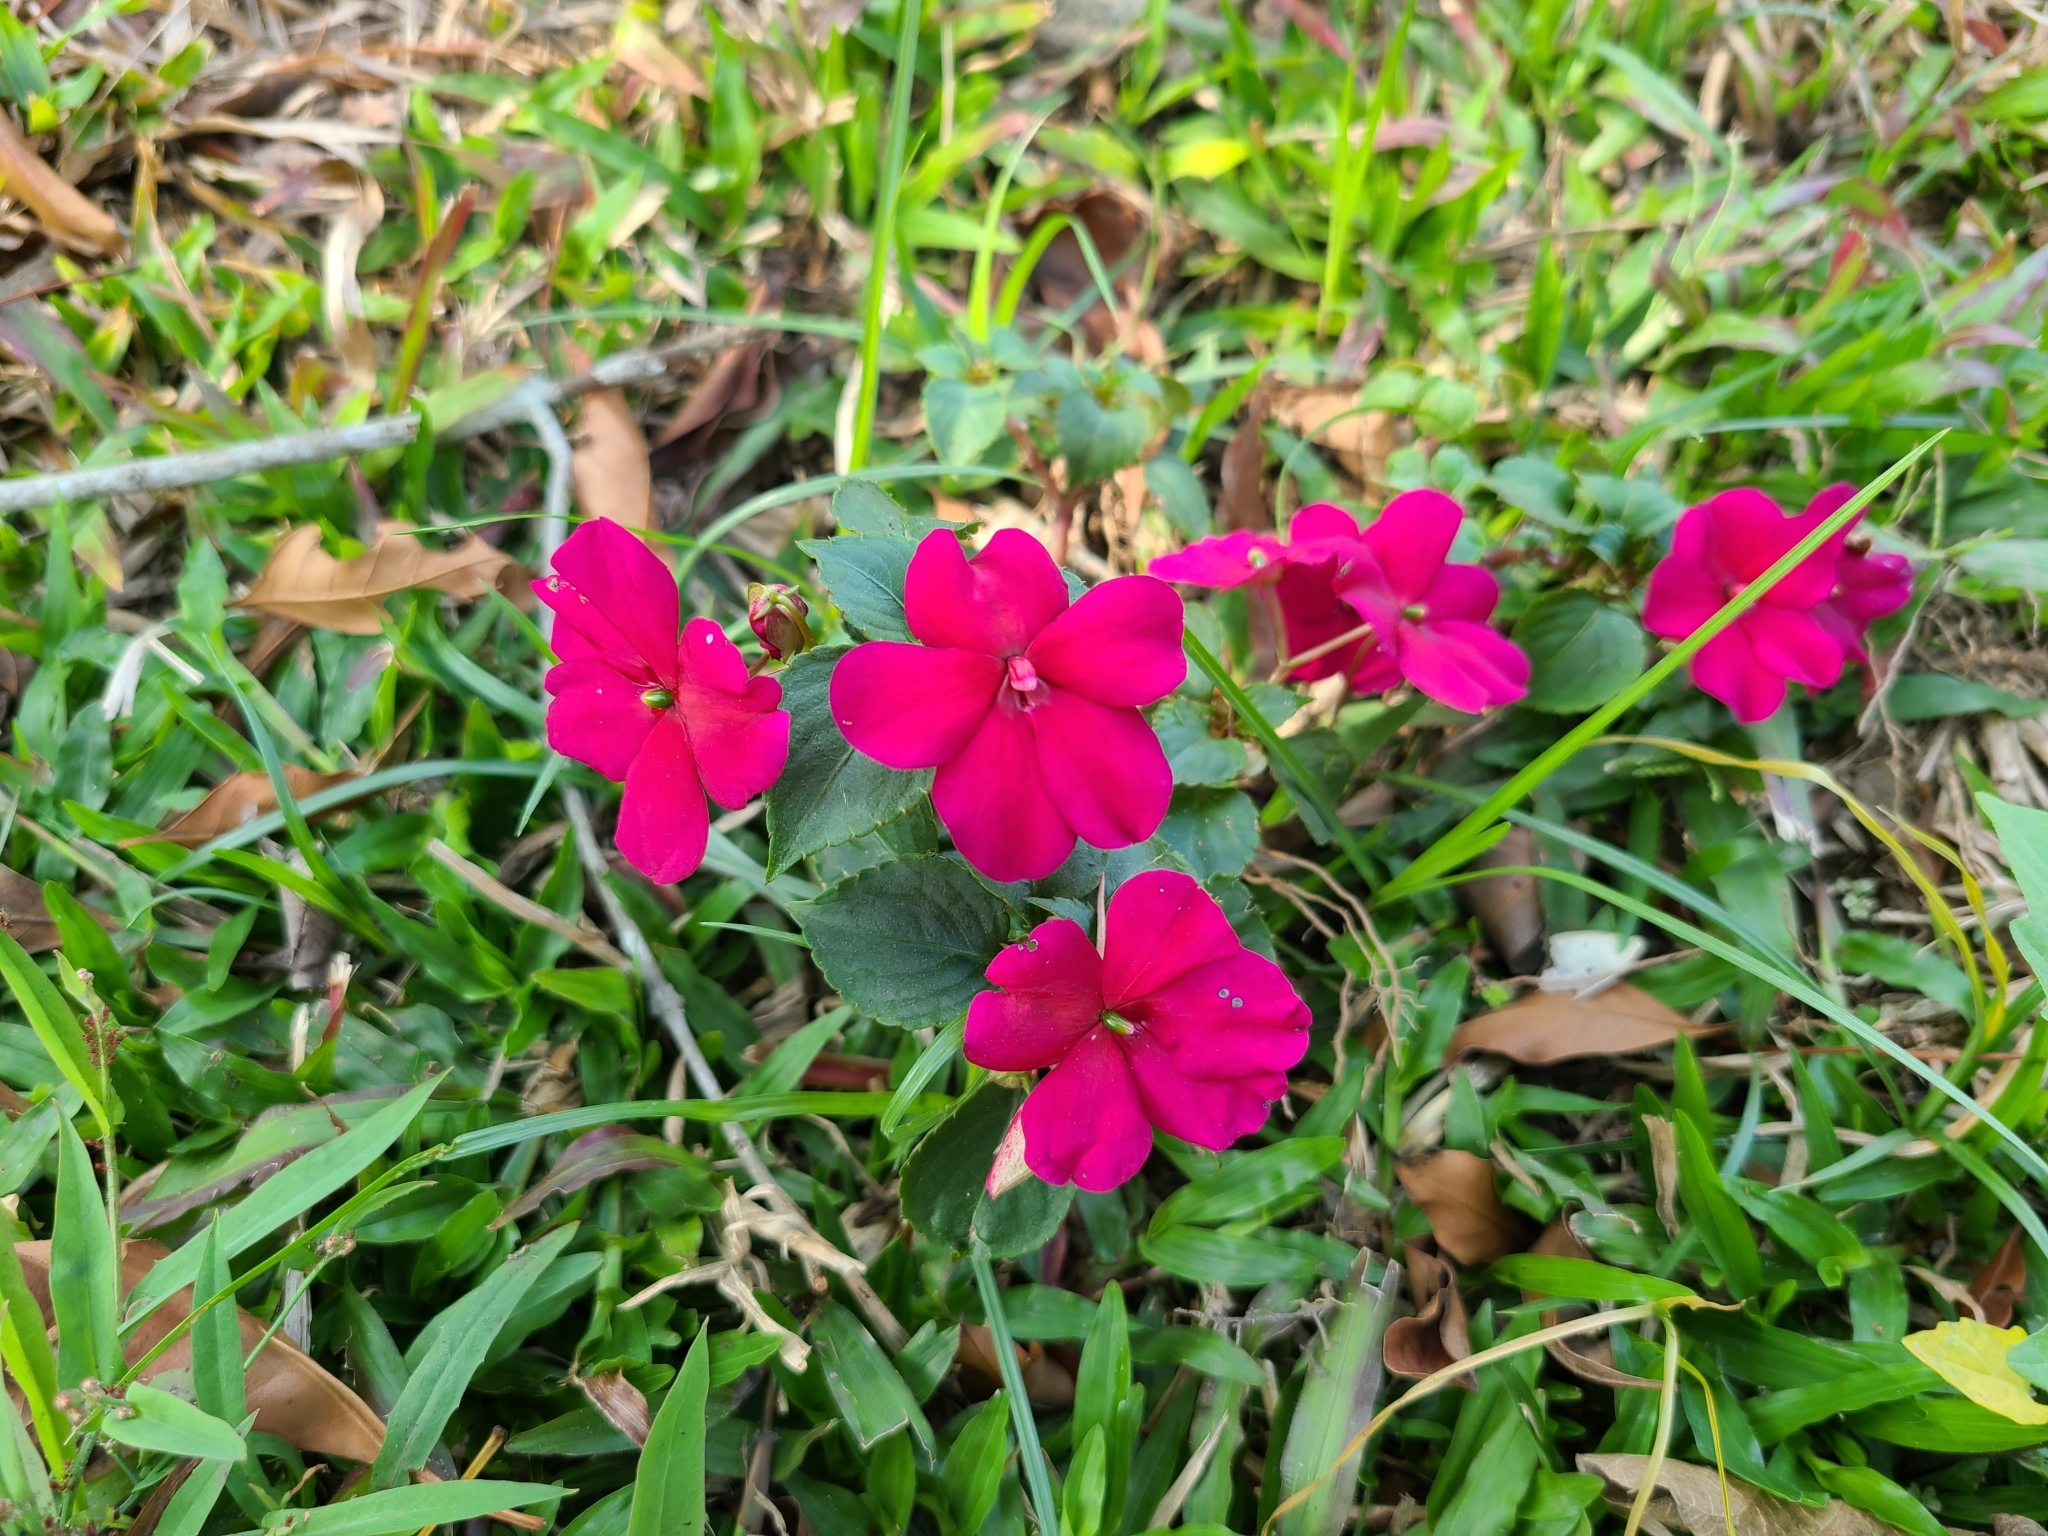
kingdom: Plantae
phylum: Tracheophyta
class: Magnoliopsida
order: Ericales
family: Balsaminaceae
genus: Impatiens
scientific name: Impatiens walleriana
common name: Buzzy lizzy
